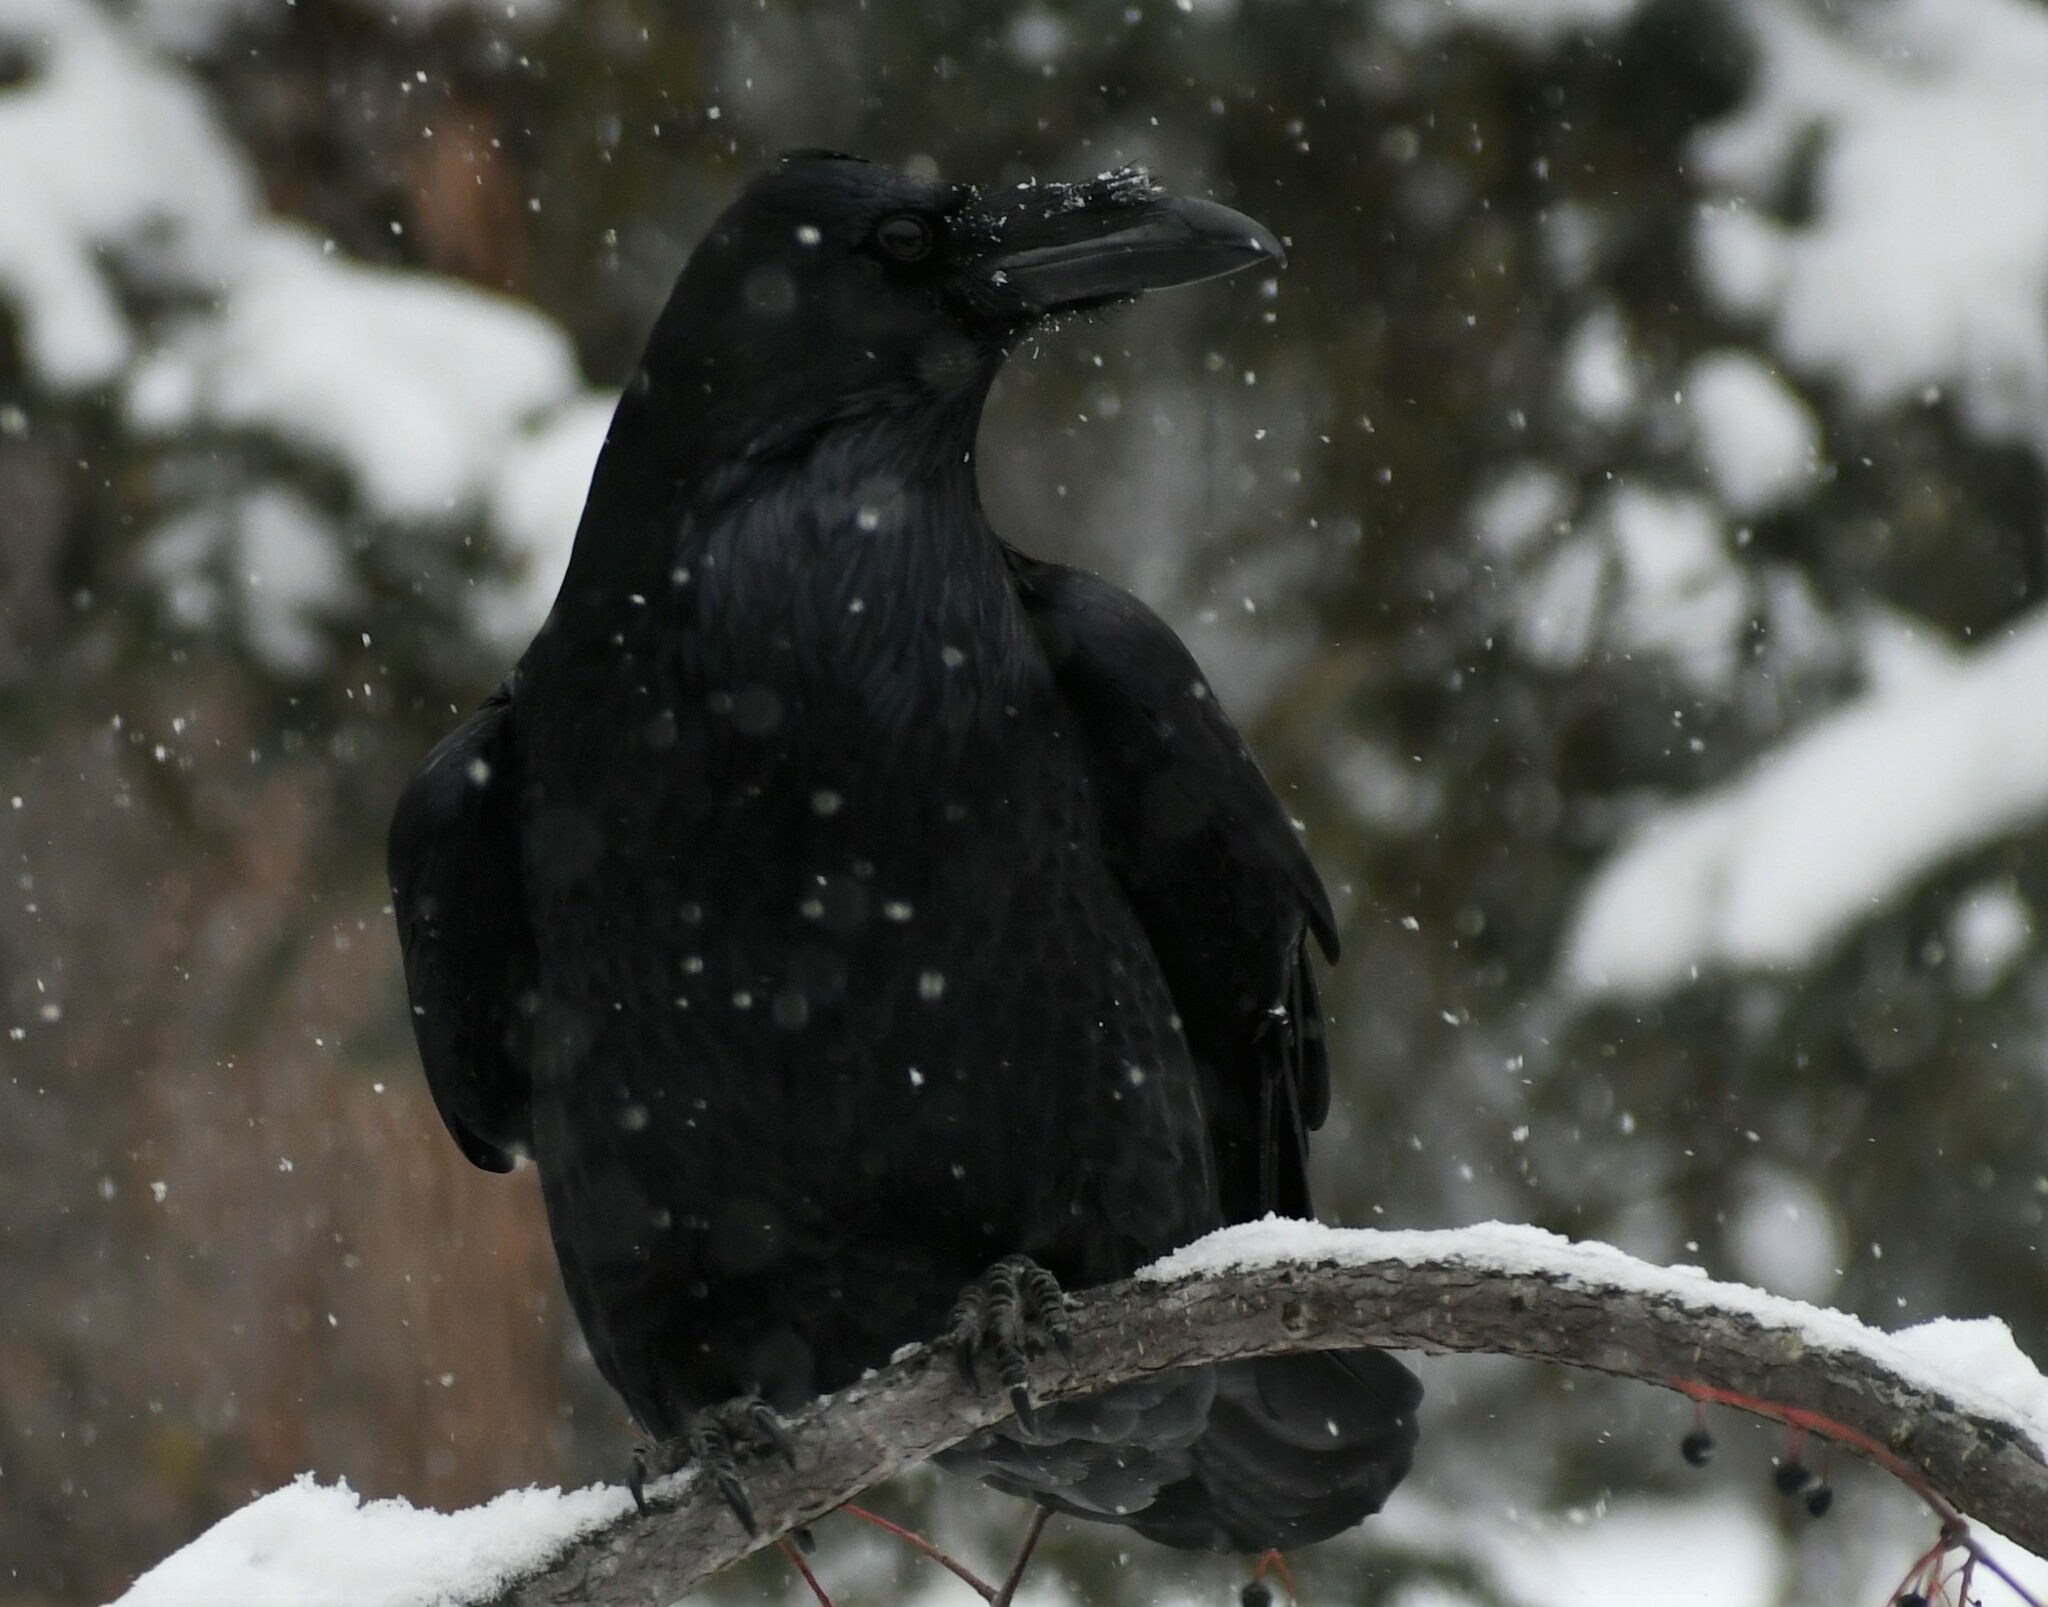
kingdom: Animalia
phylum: Chordata
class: Aves
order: Passeriformes
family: Corvidae
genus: Corvus
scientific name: Corvus corax
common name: Common raven
